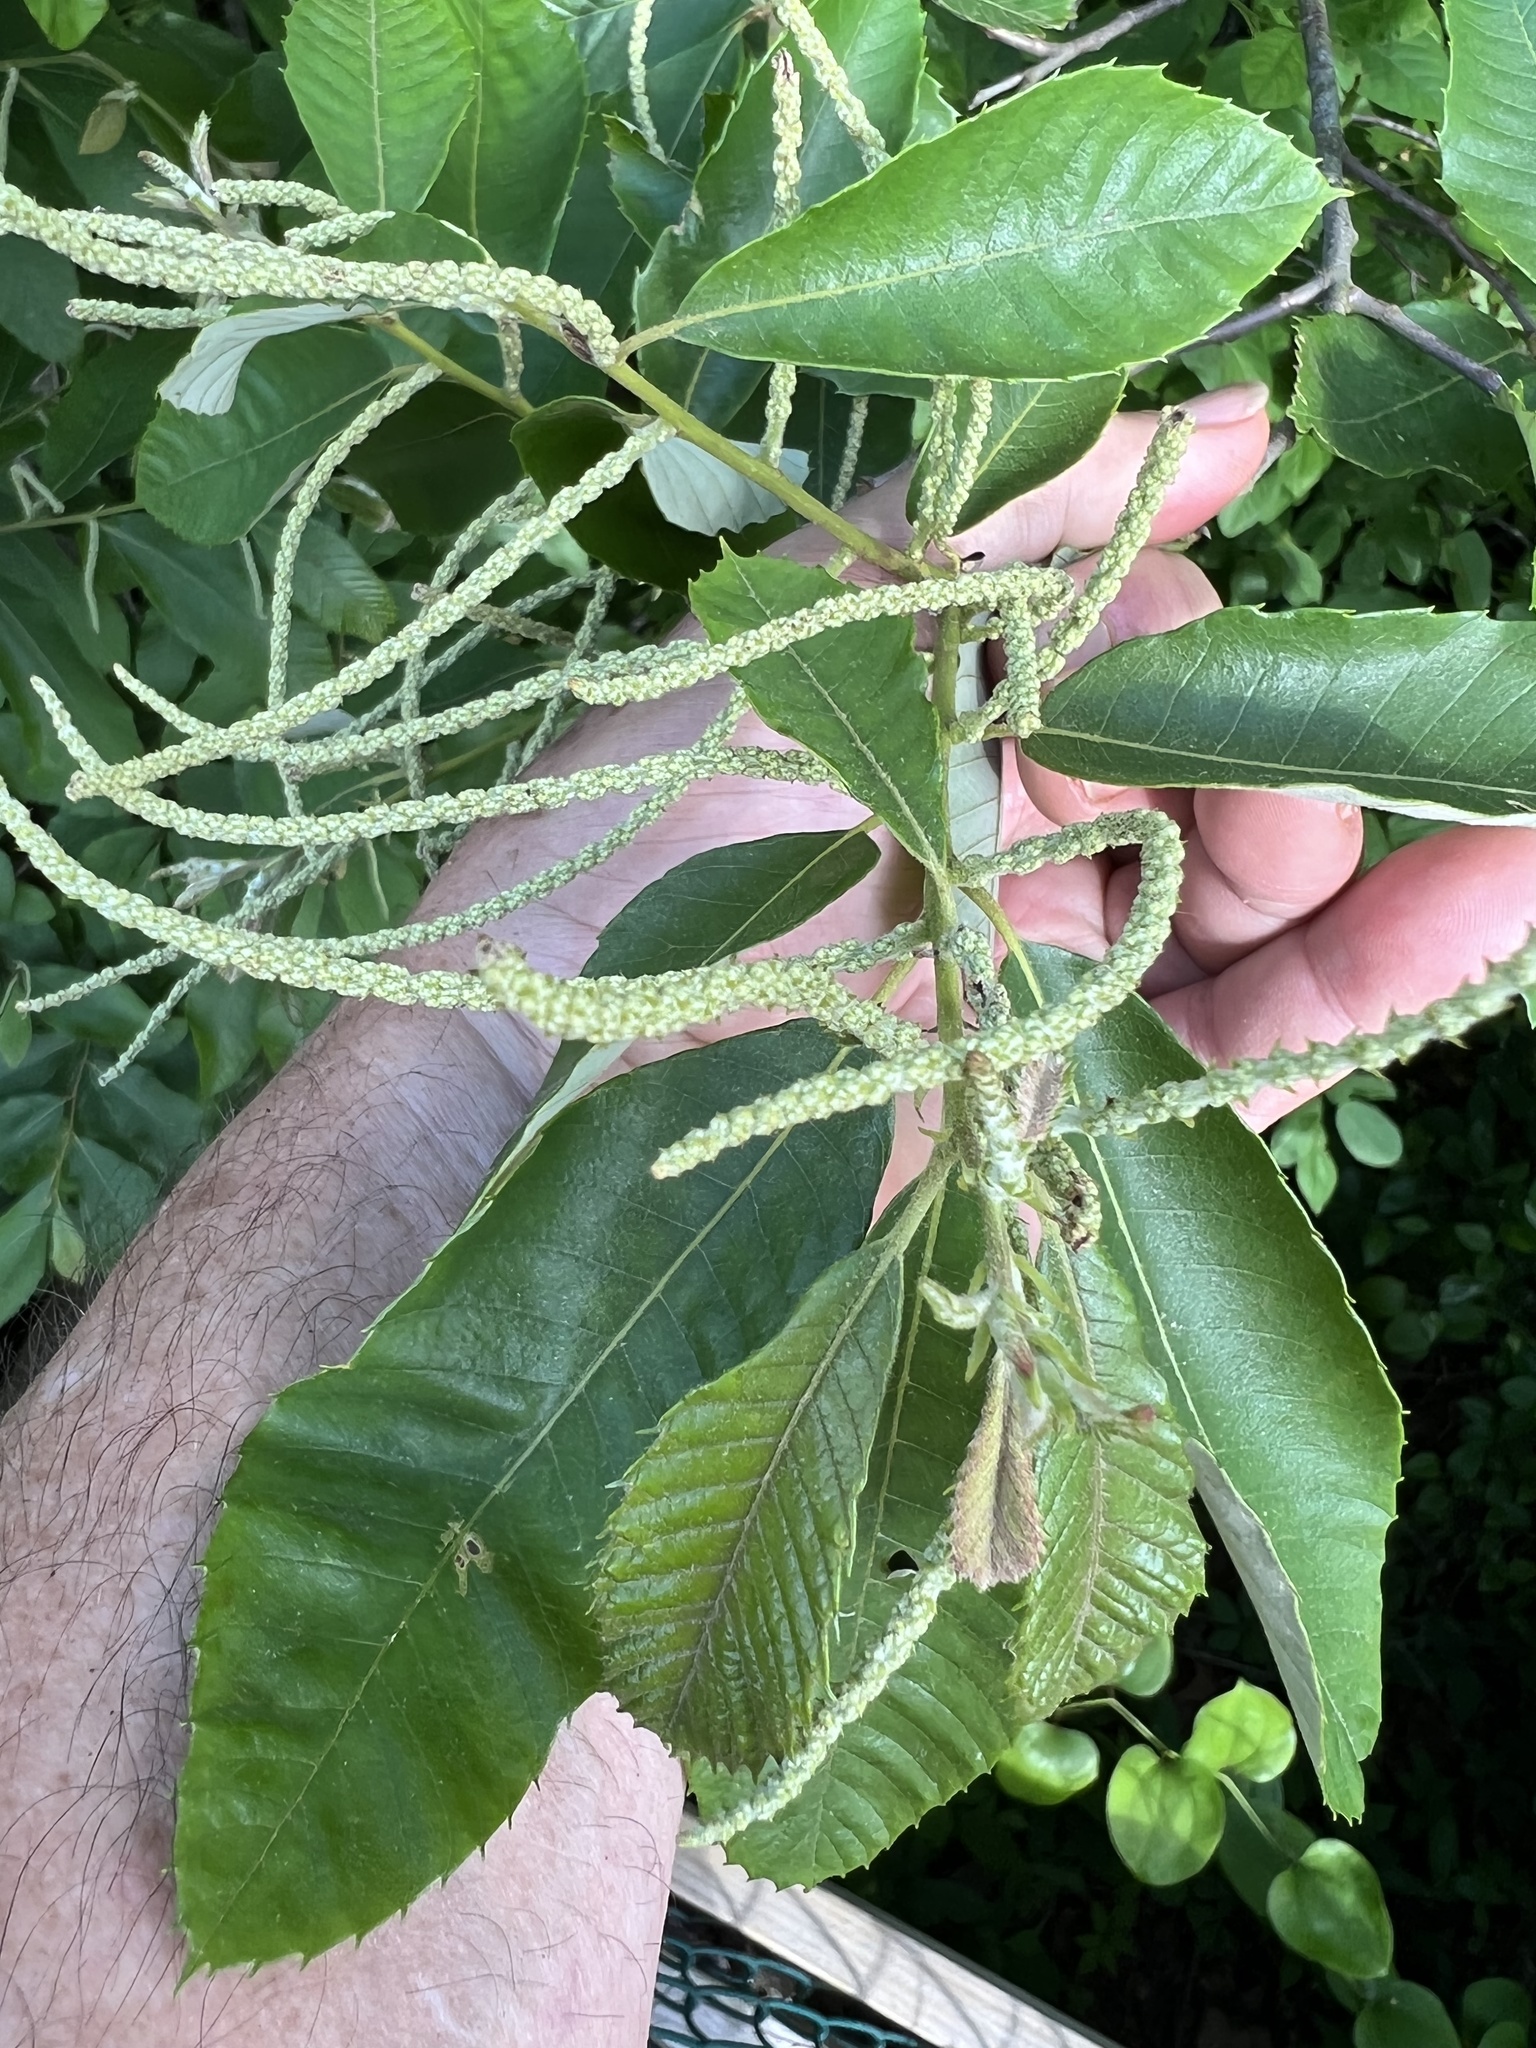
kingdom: Plantae
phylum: Tracheophyta
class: Magnoliopsida
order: Fagales
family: Fagaceae
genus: Castanea
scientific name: Castanea pumila
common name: Chinkapin
